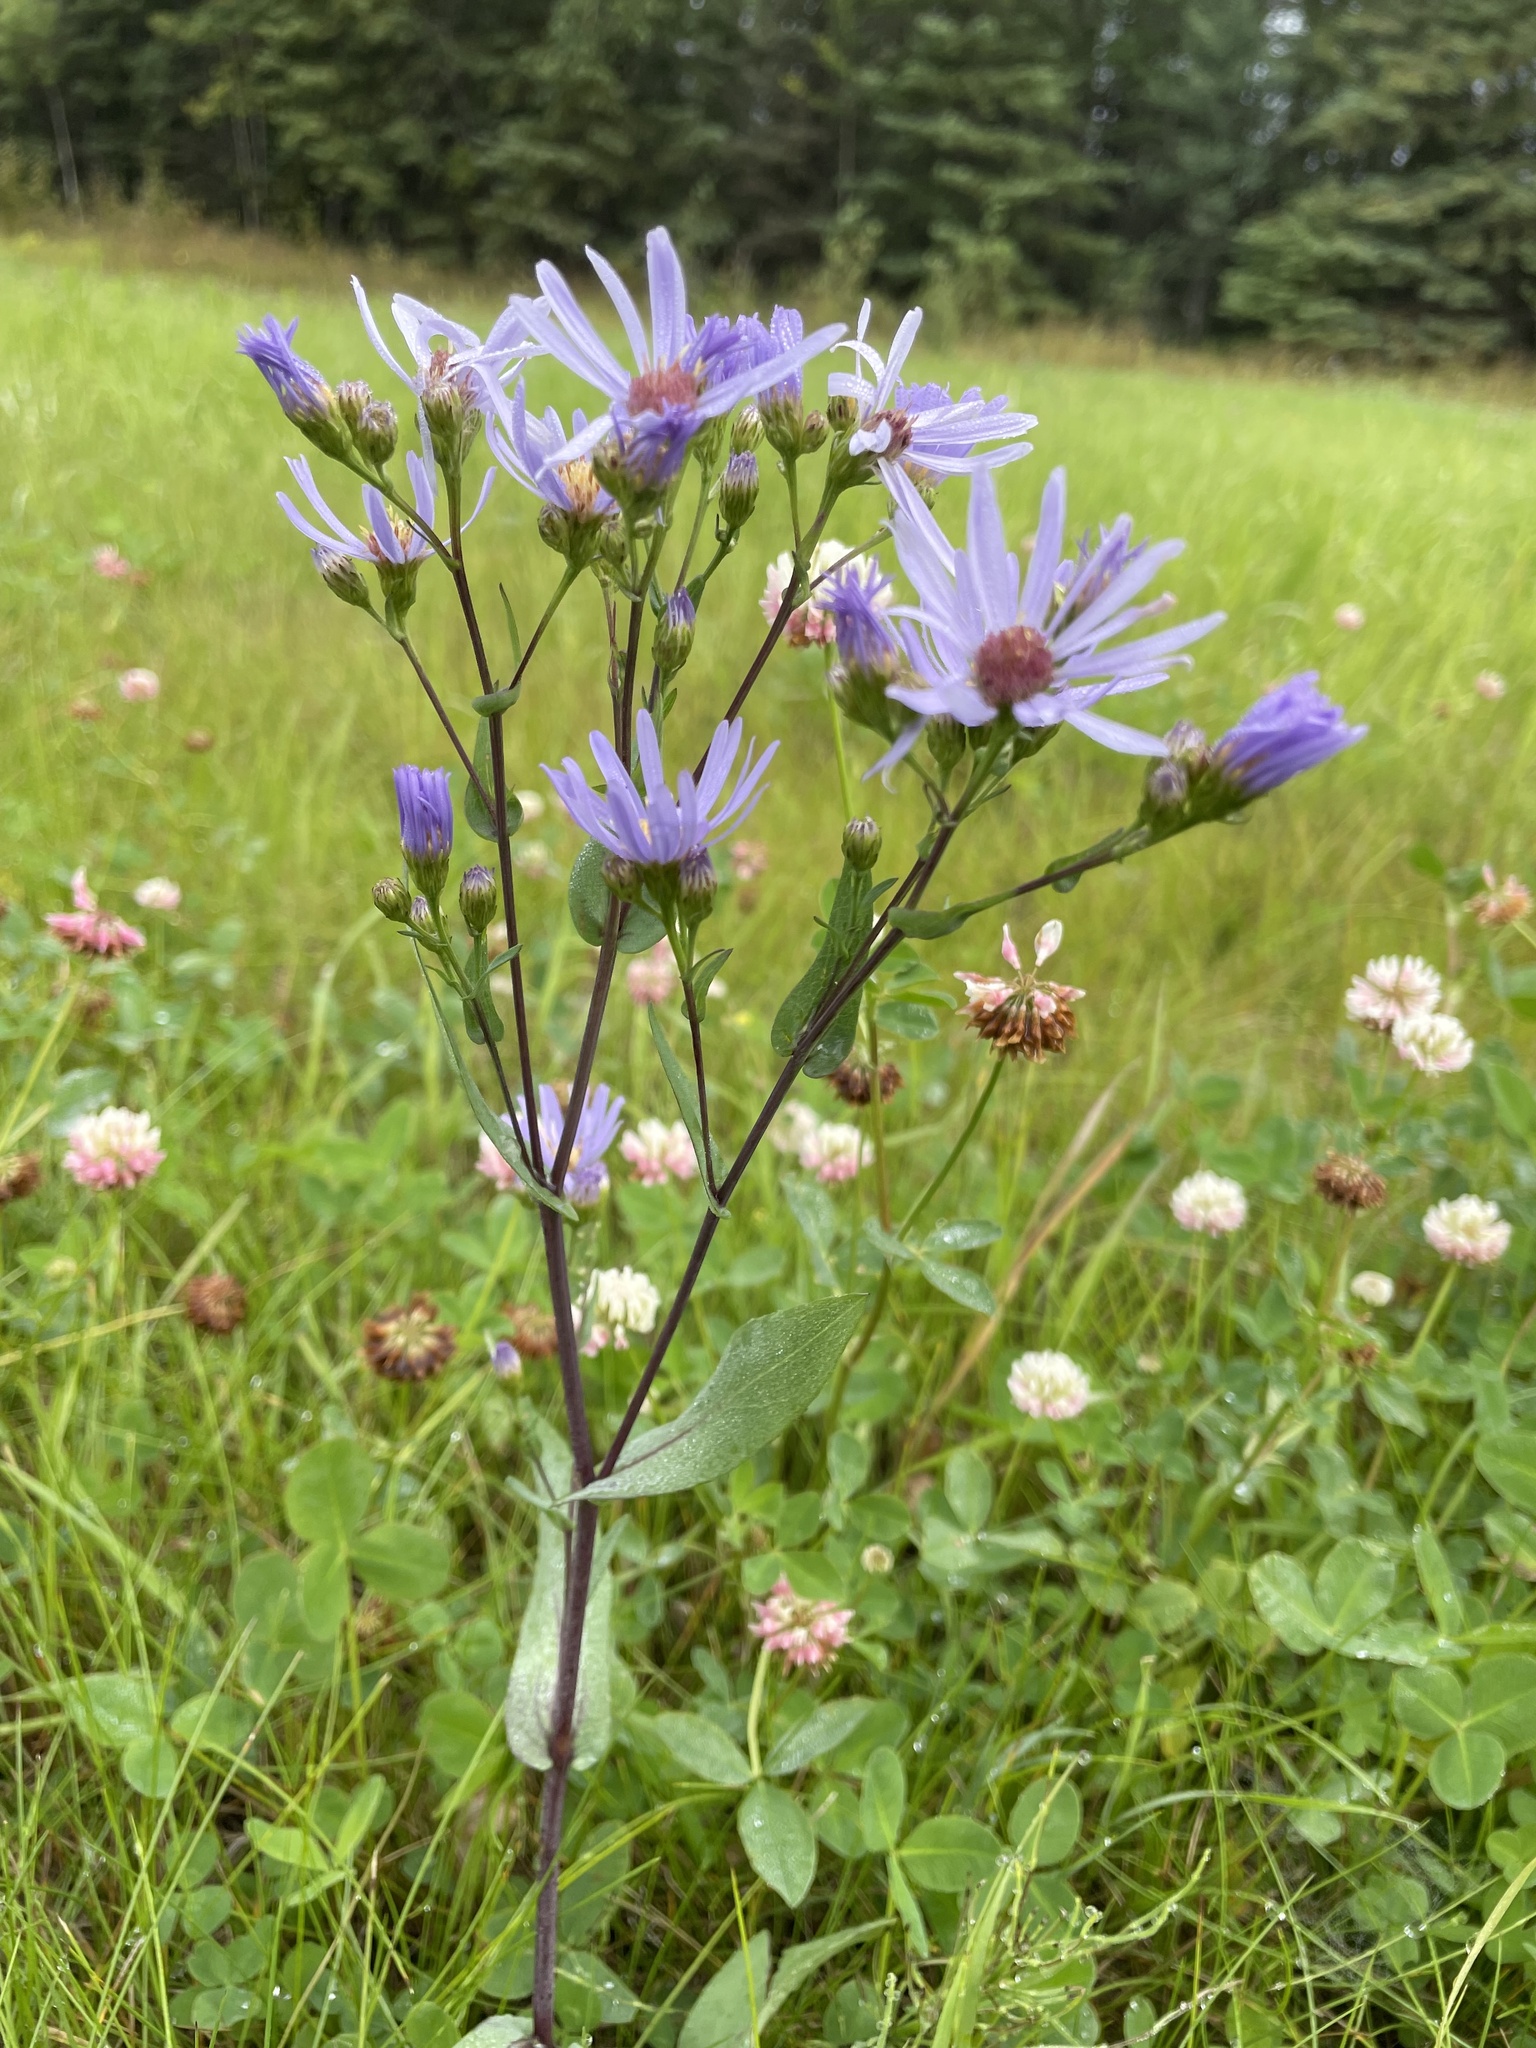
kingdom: Plantae
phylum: Tracheophyta
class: Magnoliopsida
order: Asterales
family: Asteraceae
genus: Symphyotrichum
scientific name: Symphyotrichum laeve
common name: Glaucous aster
